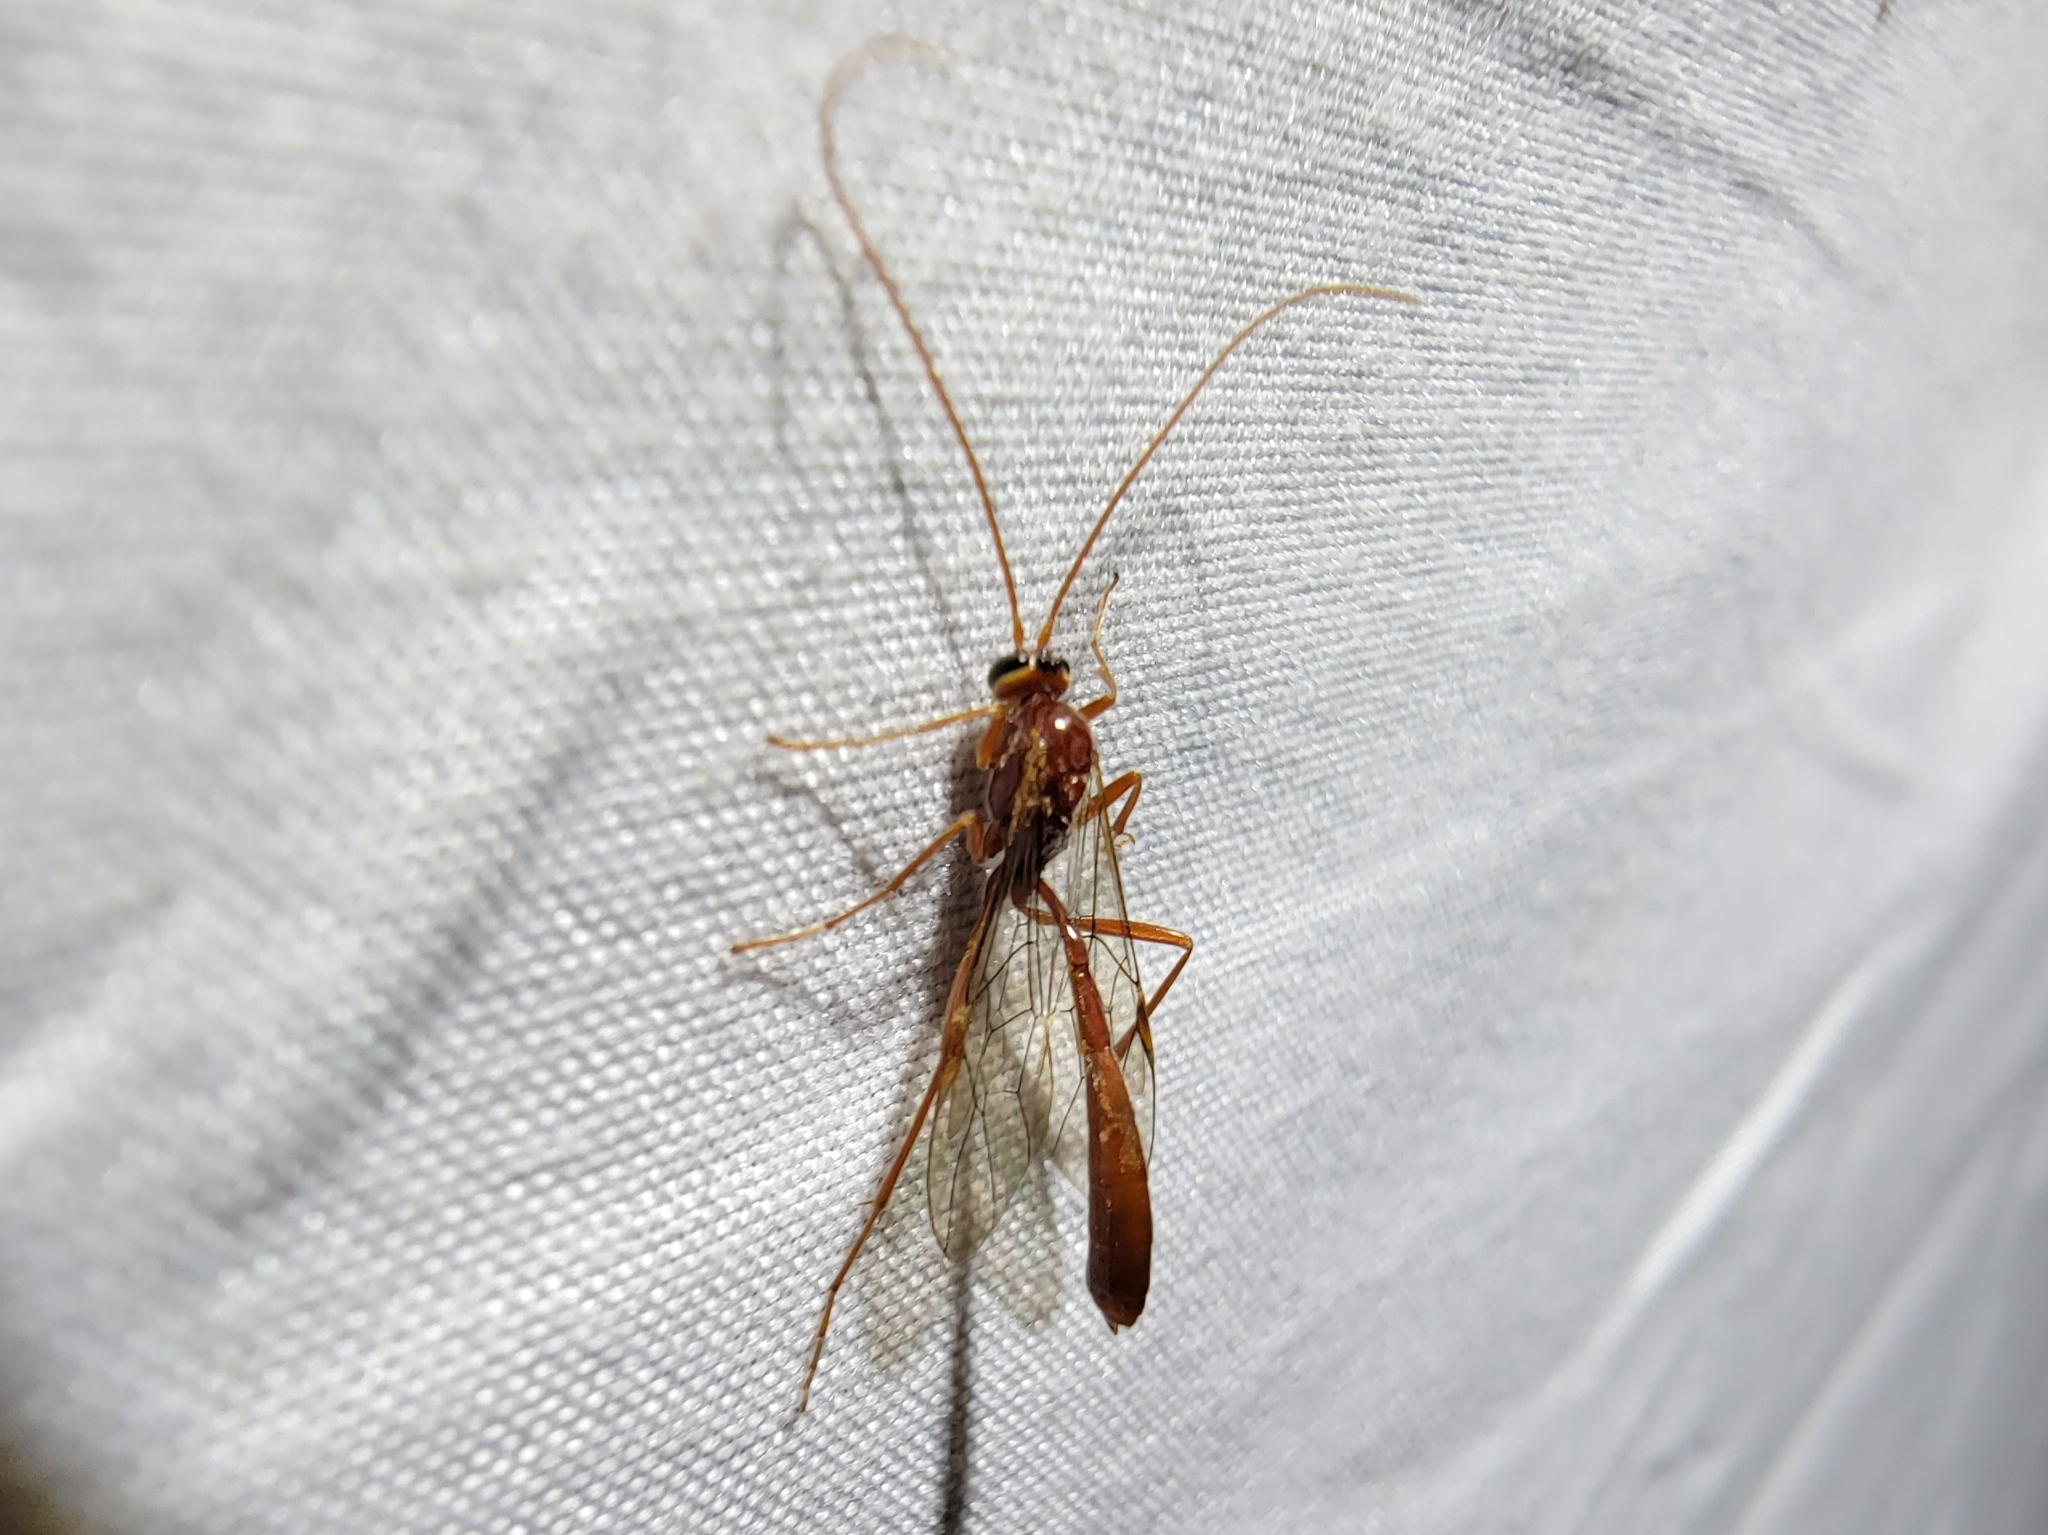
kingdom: Animalia
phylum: Arthropoda
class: Insecta
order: Hymenoptera
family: Ichneumonidae
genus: Ophion
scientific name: Ophion
